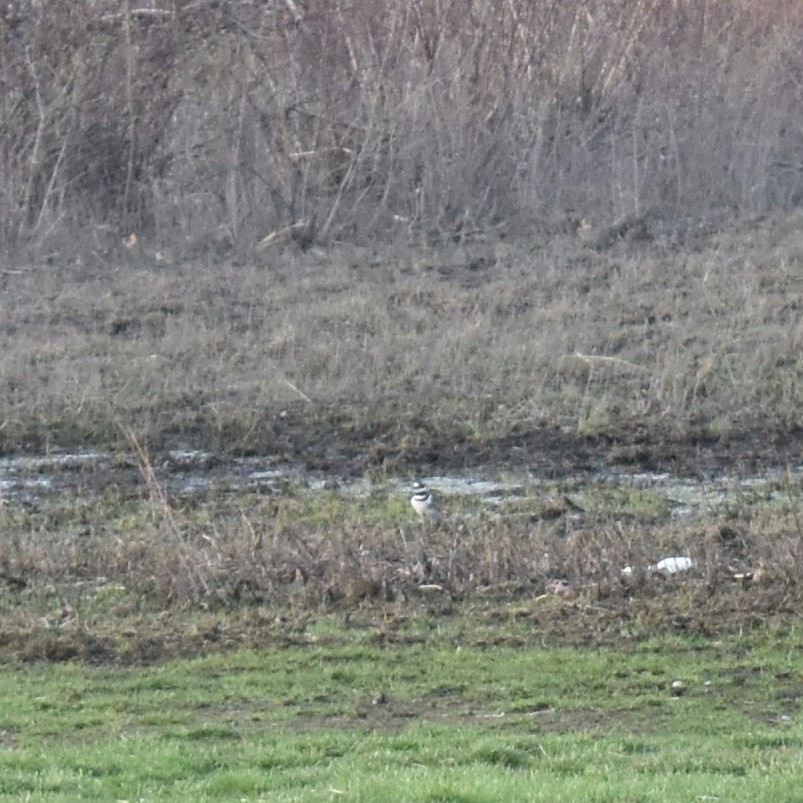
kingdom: Animalia
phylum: Chordata
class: Aves
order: Charadriiformes
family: Charadriidae
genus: Charadrius
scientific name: Charadrius vociferus
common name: Killdeer
